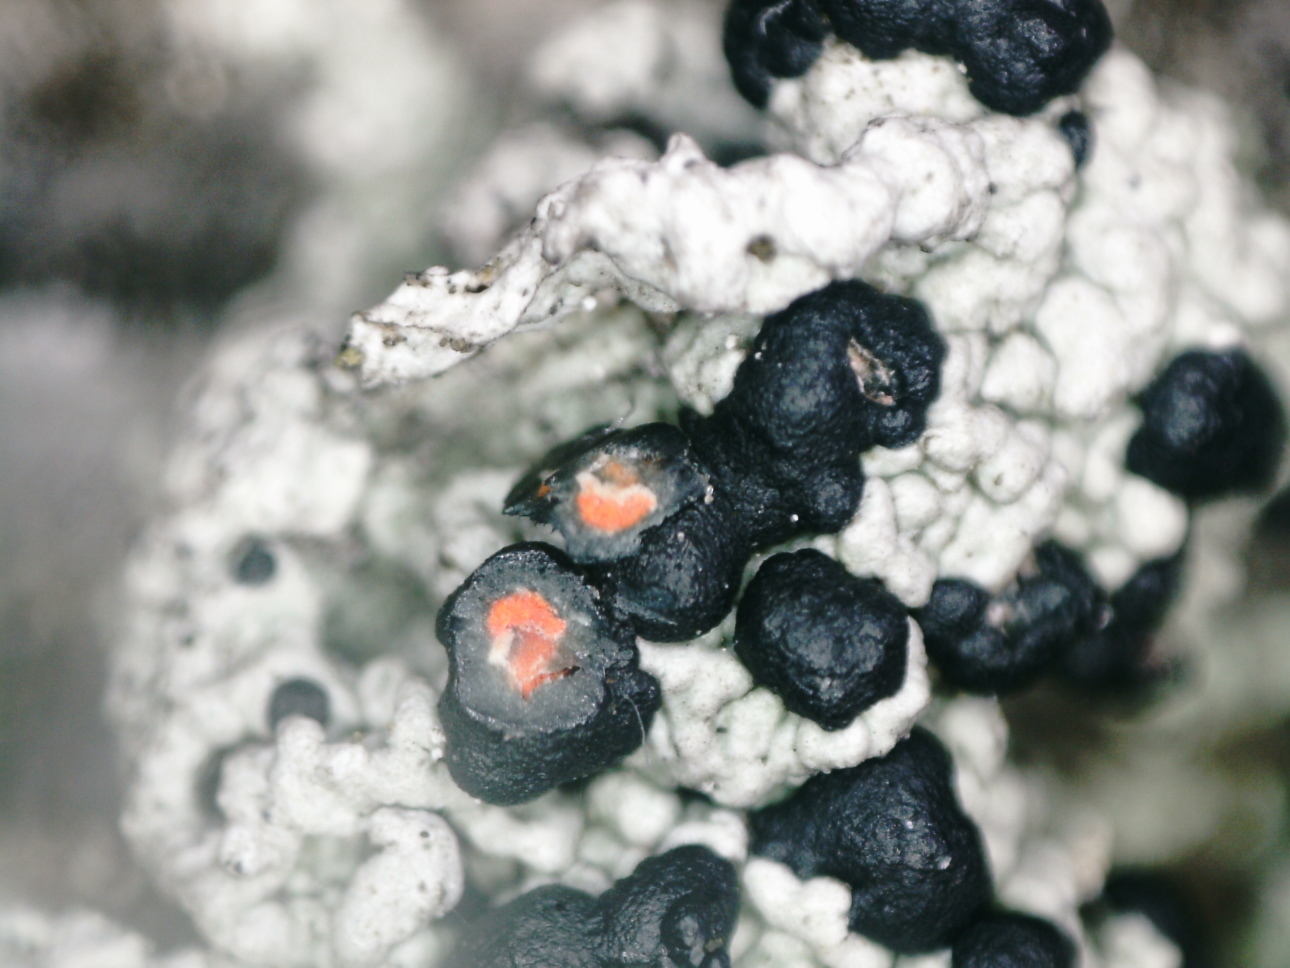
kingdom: Fungi
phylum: Ascomycota
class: Lecanoromycetes
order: Lecanorales
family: Tephromelataceae
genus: Mycoblastus
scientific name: Mycoblastus sanguinarius
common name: Bloody-heart lichen
